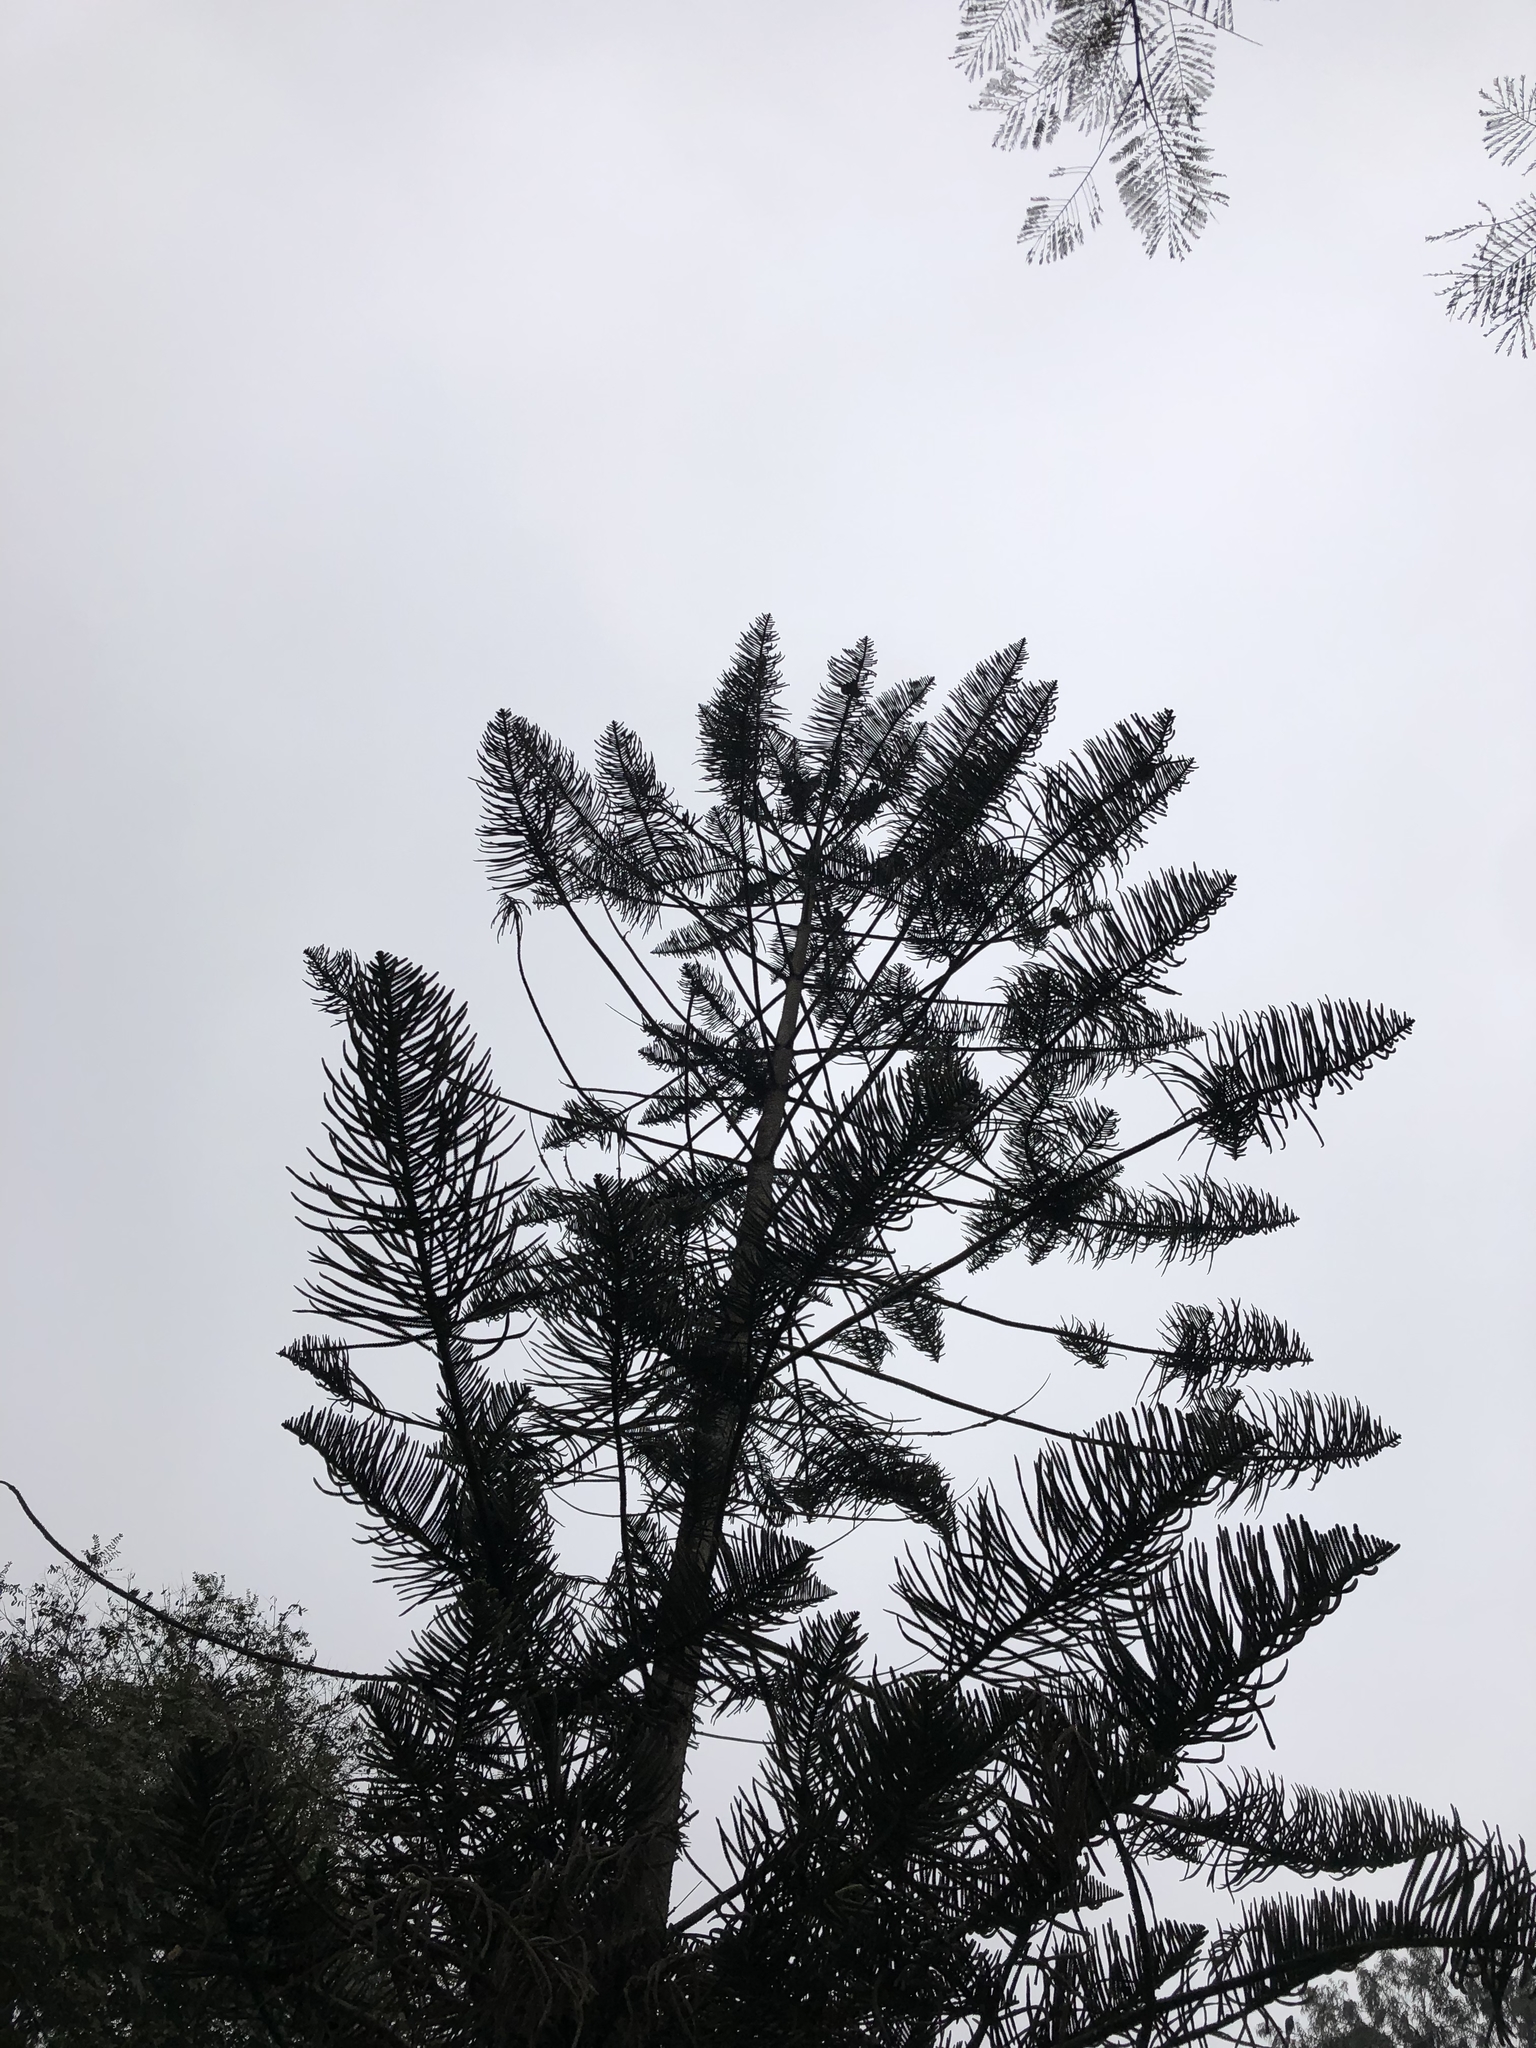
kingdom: Animalia
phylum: Chordata
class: Aves
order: Accipitriformes
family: Accipitridae
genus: Parabuteo
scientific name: Parabuteo unicinctus
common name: Harris's hawk
